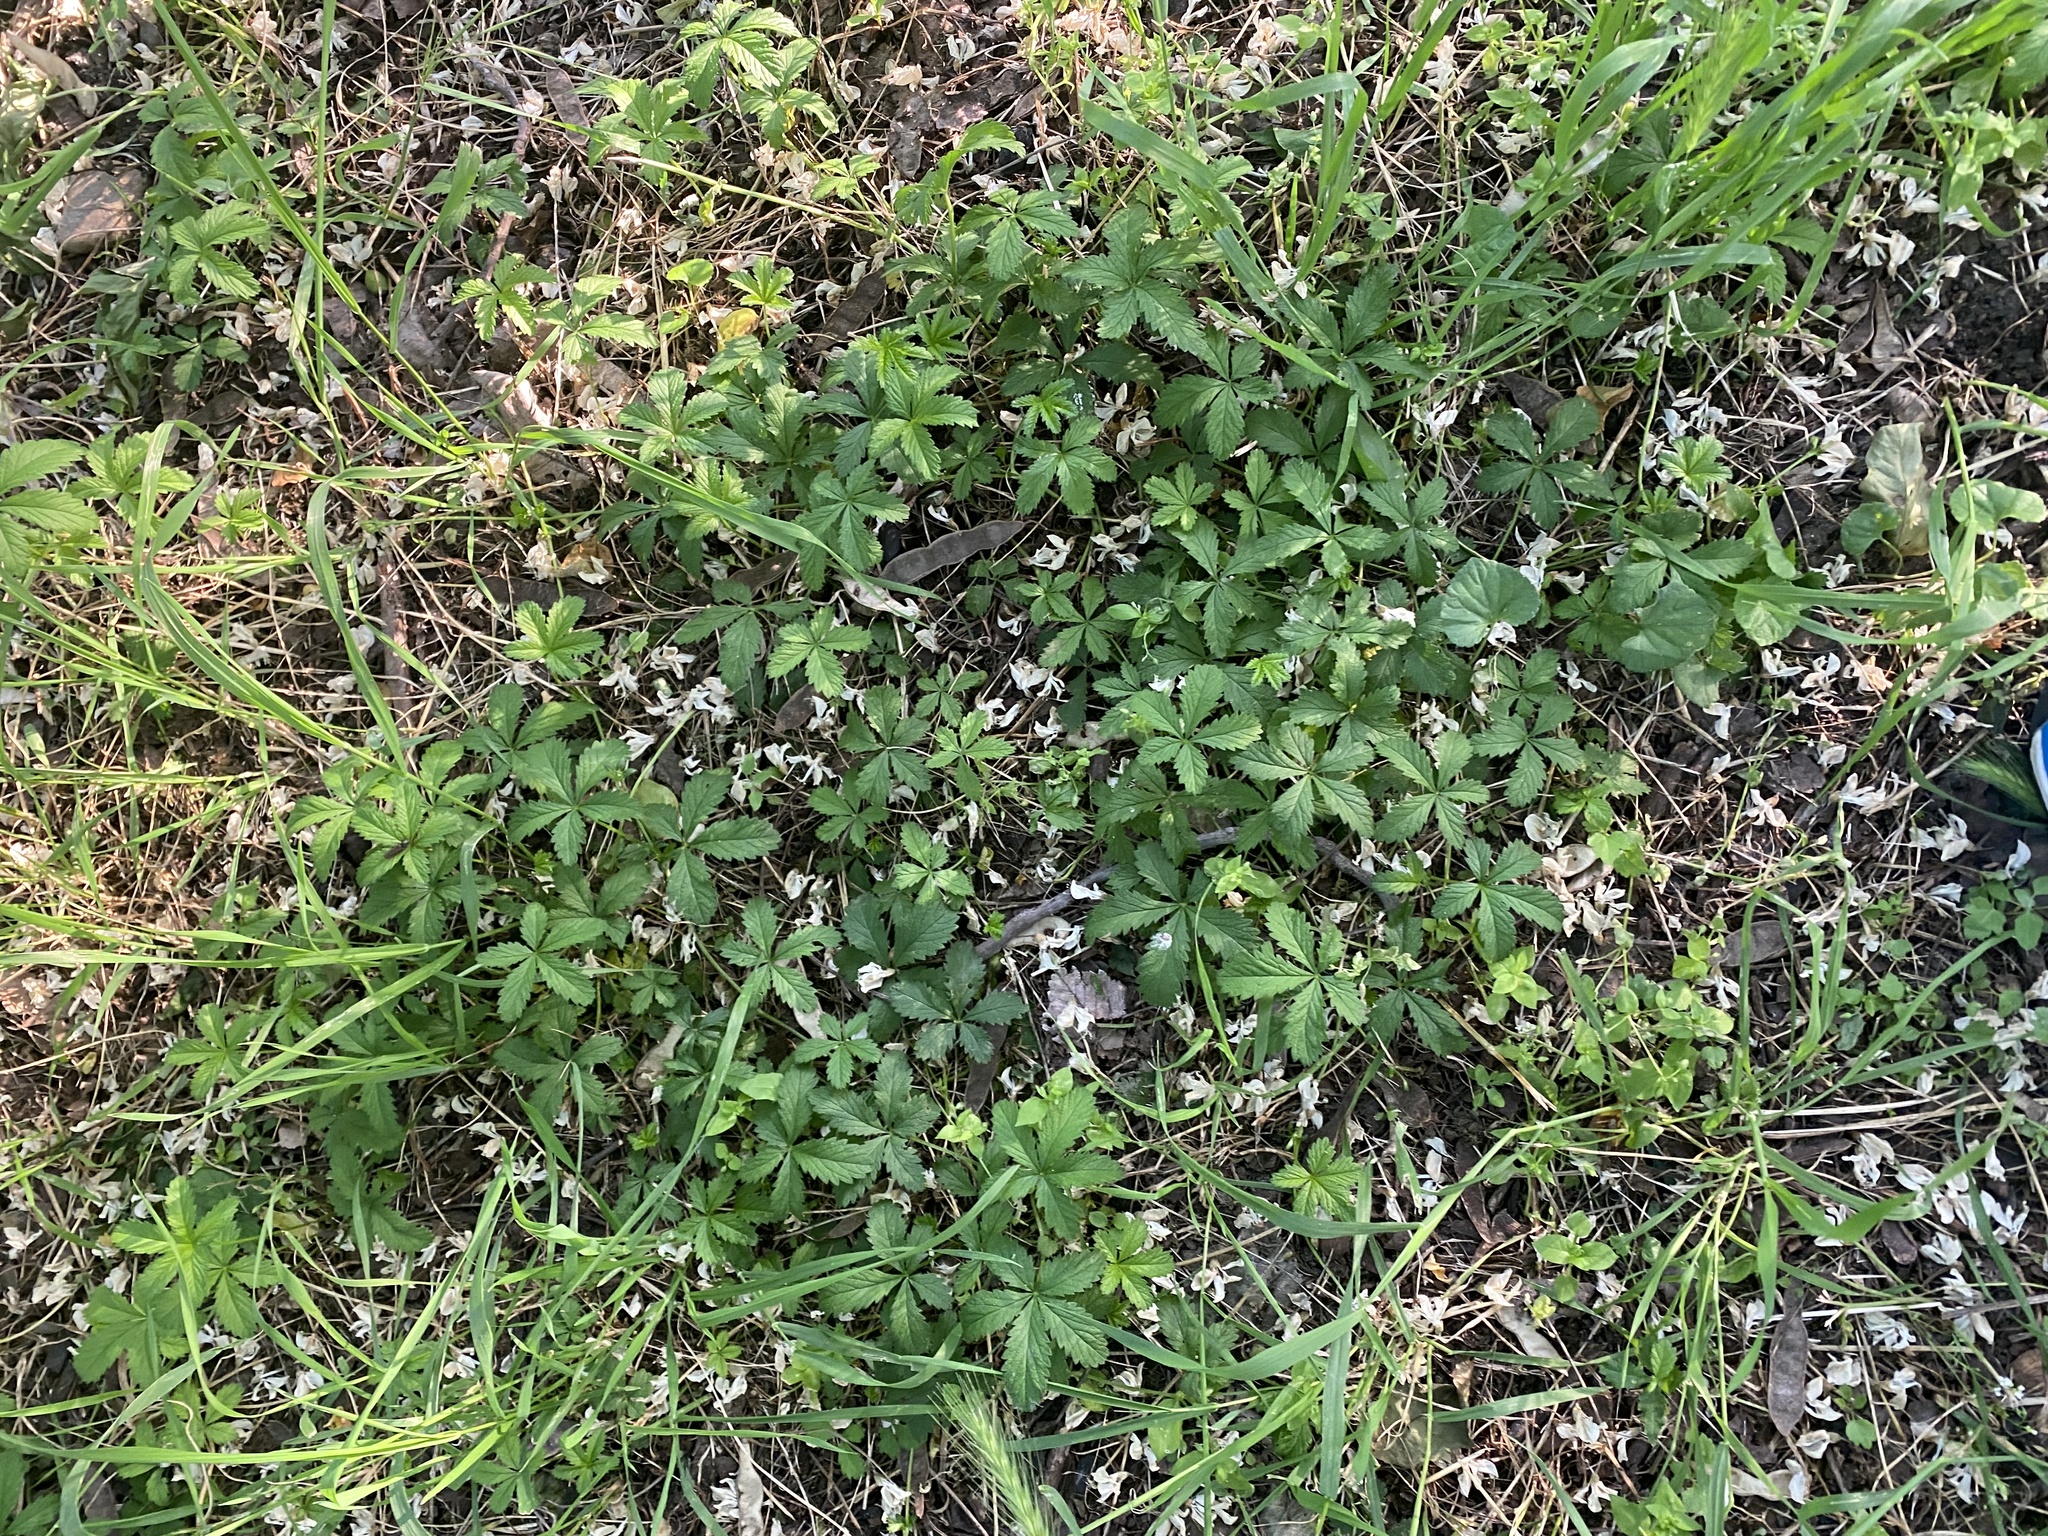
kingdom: Plantae
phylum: Tracheophyta
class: Magnoliopsida
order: Rosales
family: Rosaceae
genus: Potentilla
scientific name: Potentilla reptans
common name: Creeping cinquefoil
